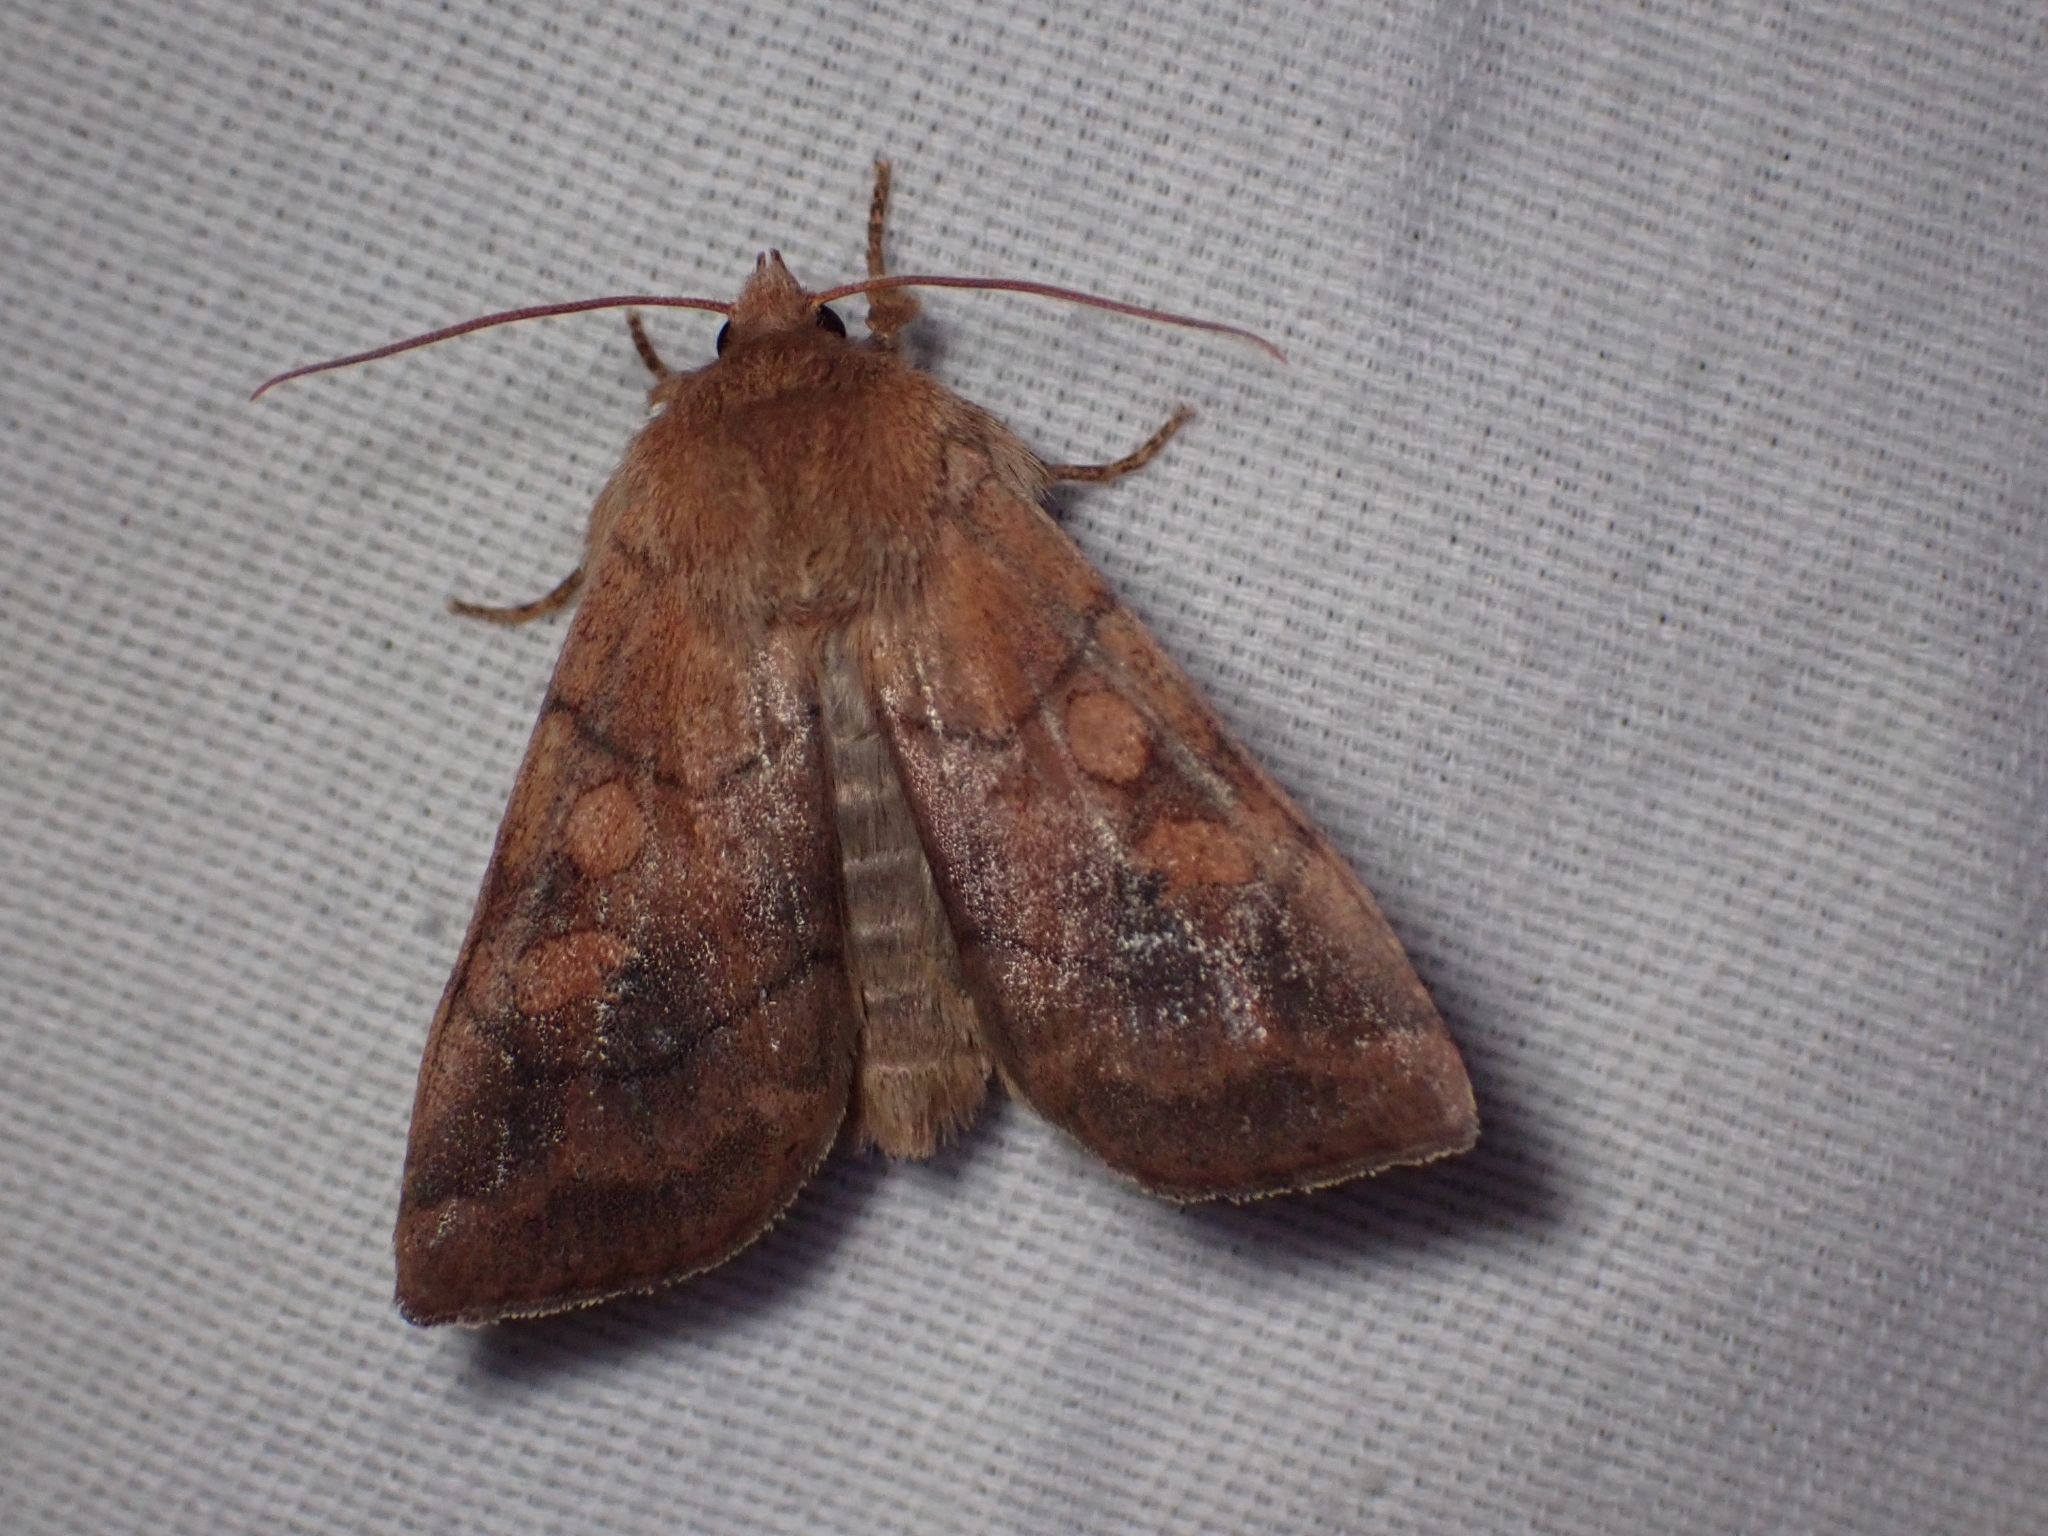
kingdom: Animalia
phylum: Arthropoda
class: Insecta
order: Lepidoptera
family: Noctuidae
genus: Enargia
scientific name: Enargia infumata
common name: Smoked sallow
